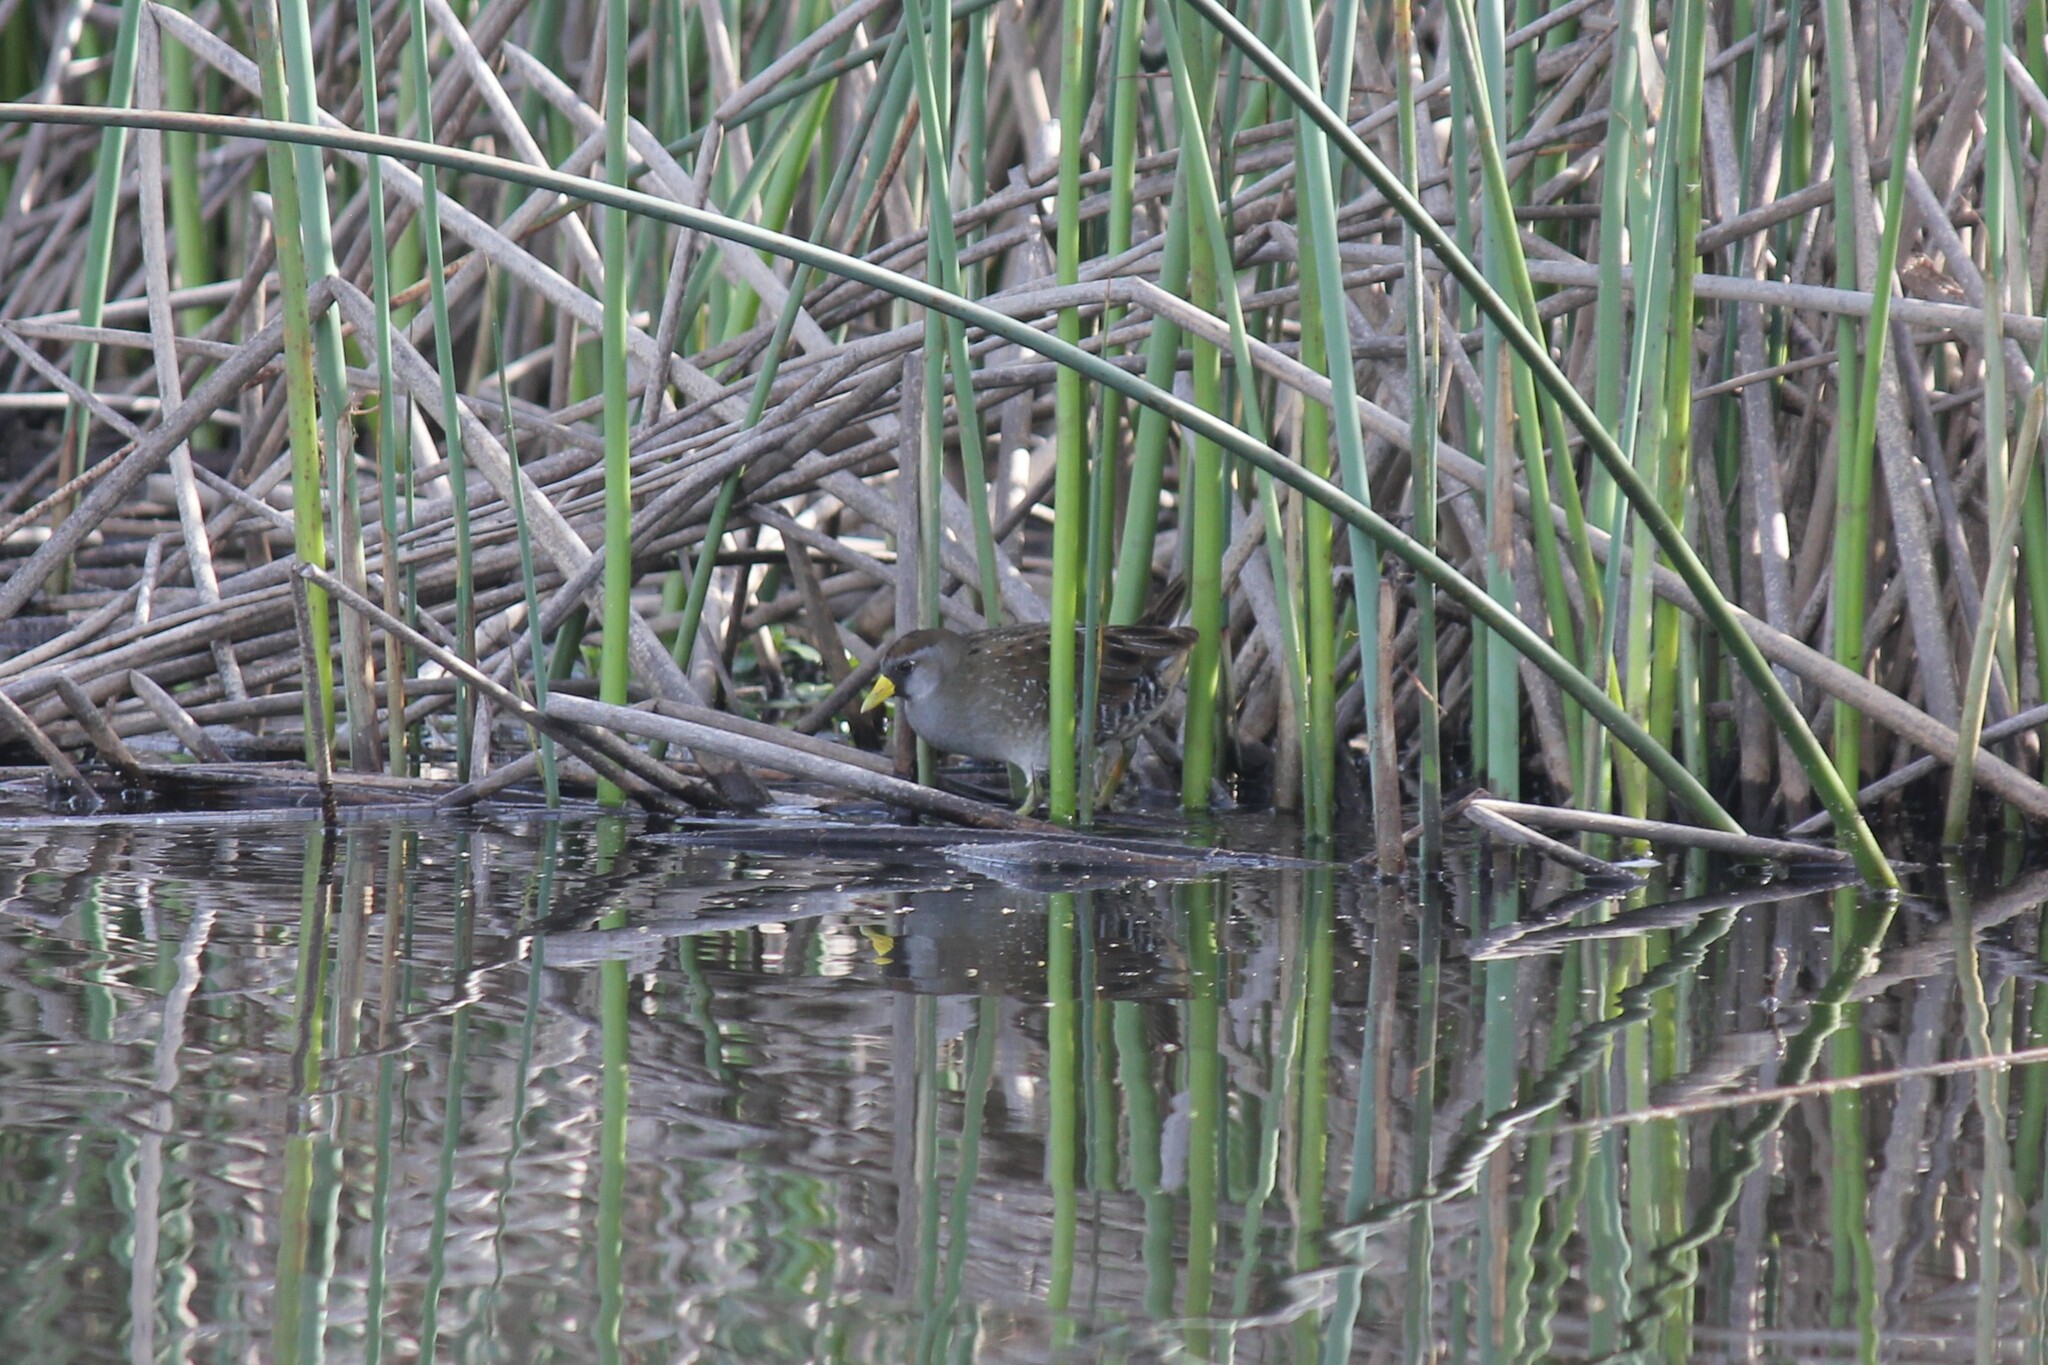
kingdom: Animalia
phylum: Chordata
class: Aves
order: Gruiformes
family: Rallidae
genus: Porzana
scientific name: Porzana carolina
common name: Sora
